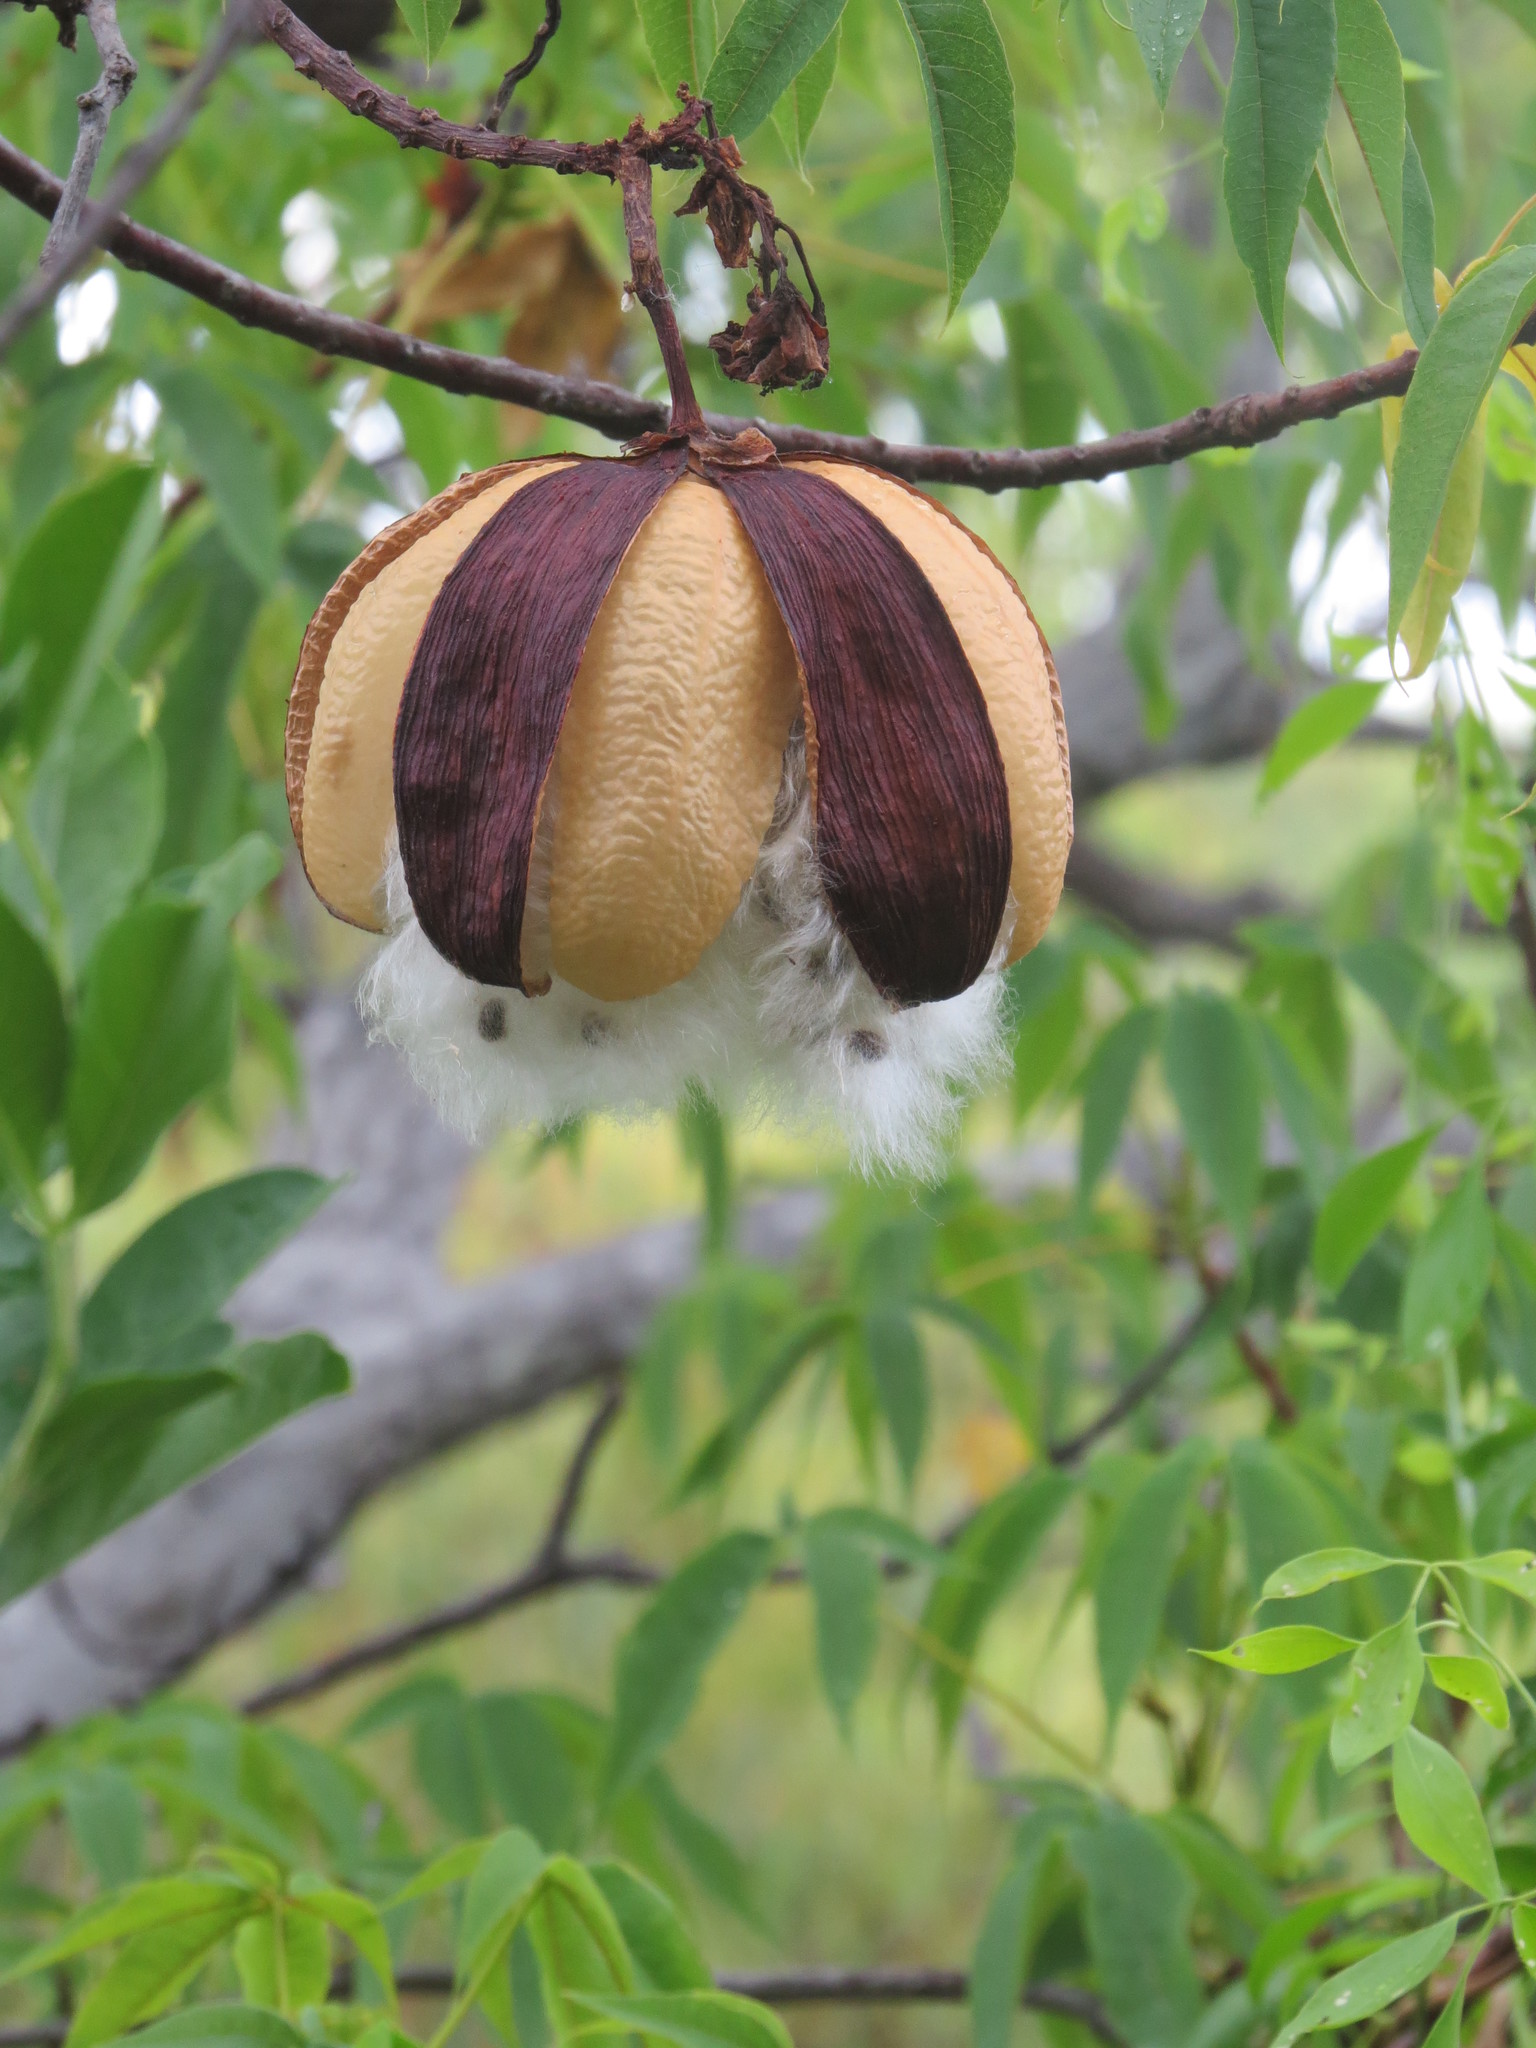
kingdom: Plantae
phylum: Tracheophyta
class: Magnoliopsida
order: Malvales
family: Cochlospermaceae
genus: Cochlospermum
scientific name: Cochlospermum gillivraei
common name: Cottontree
